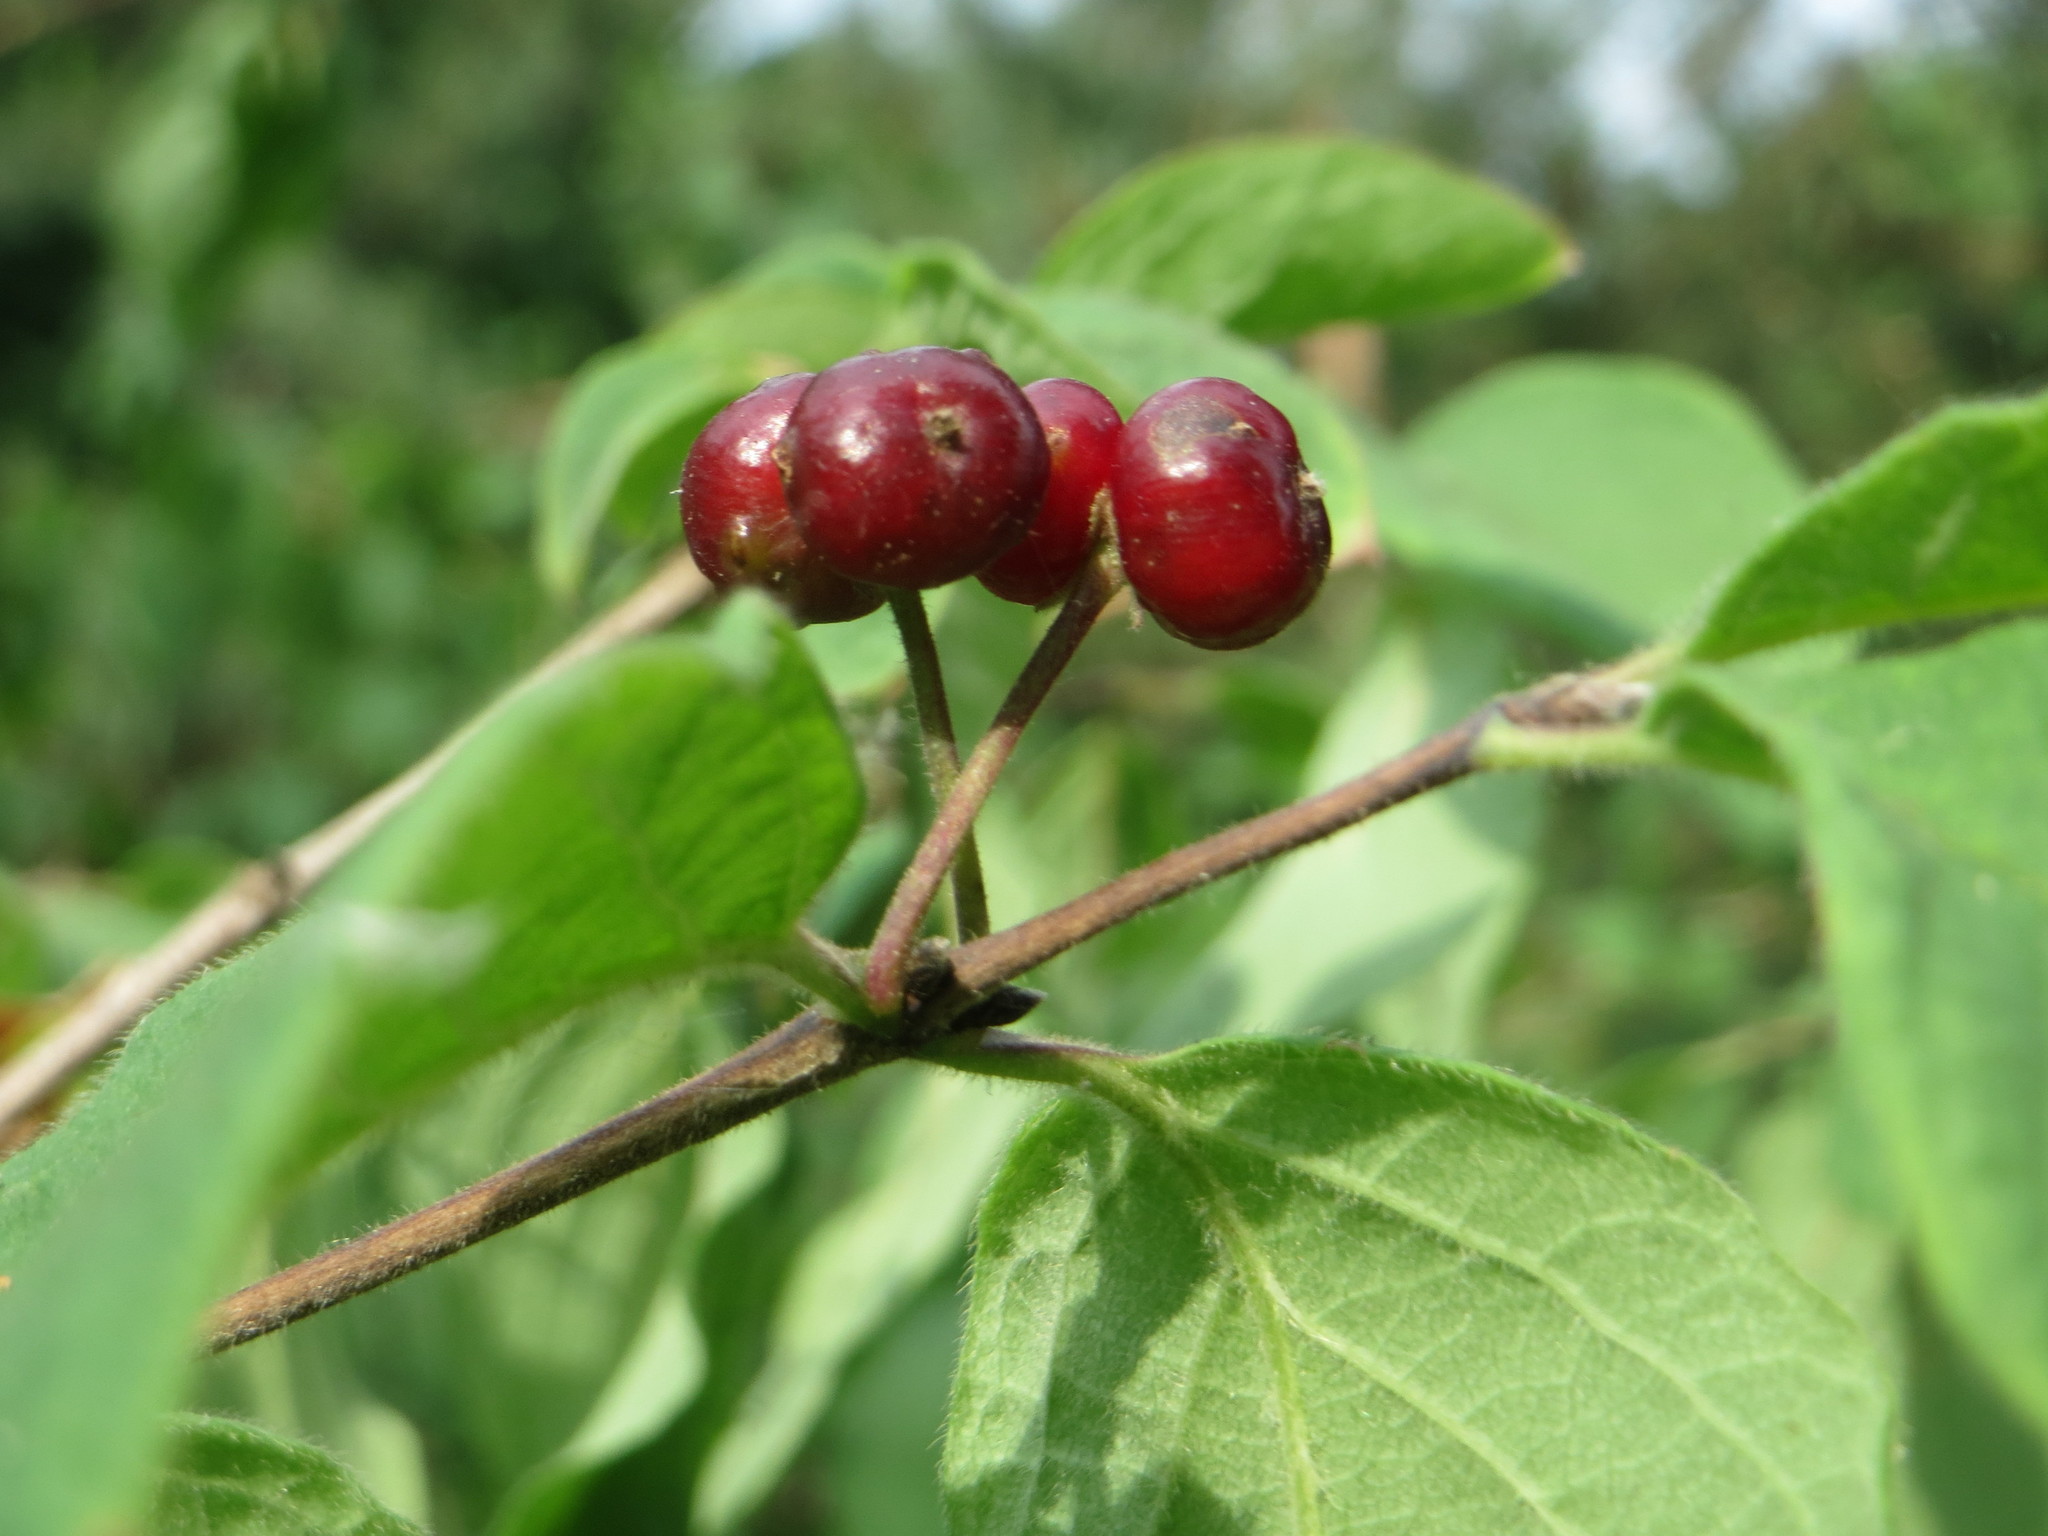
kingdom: Plantae
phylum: Tracheophyta
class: Magnoliopsida
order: Dipsacales
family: Caprifoliaceae
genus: Lonicera
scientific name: Lonicera xylosteum
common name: Fly honeysuckle
